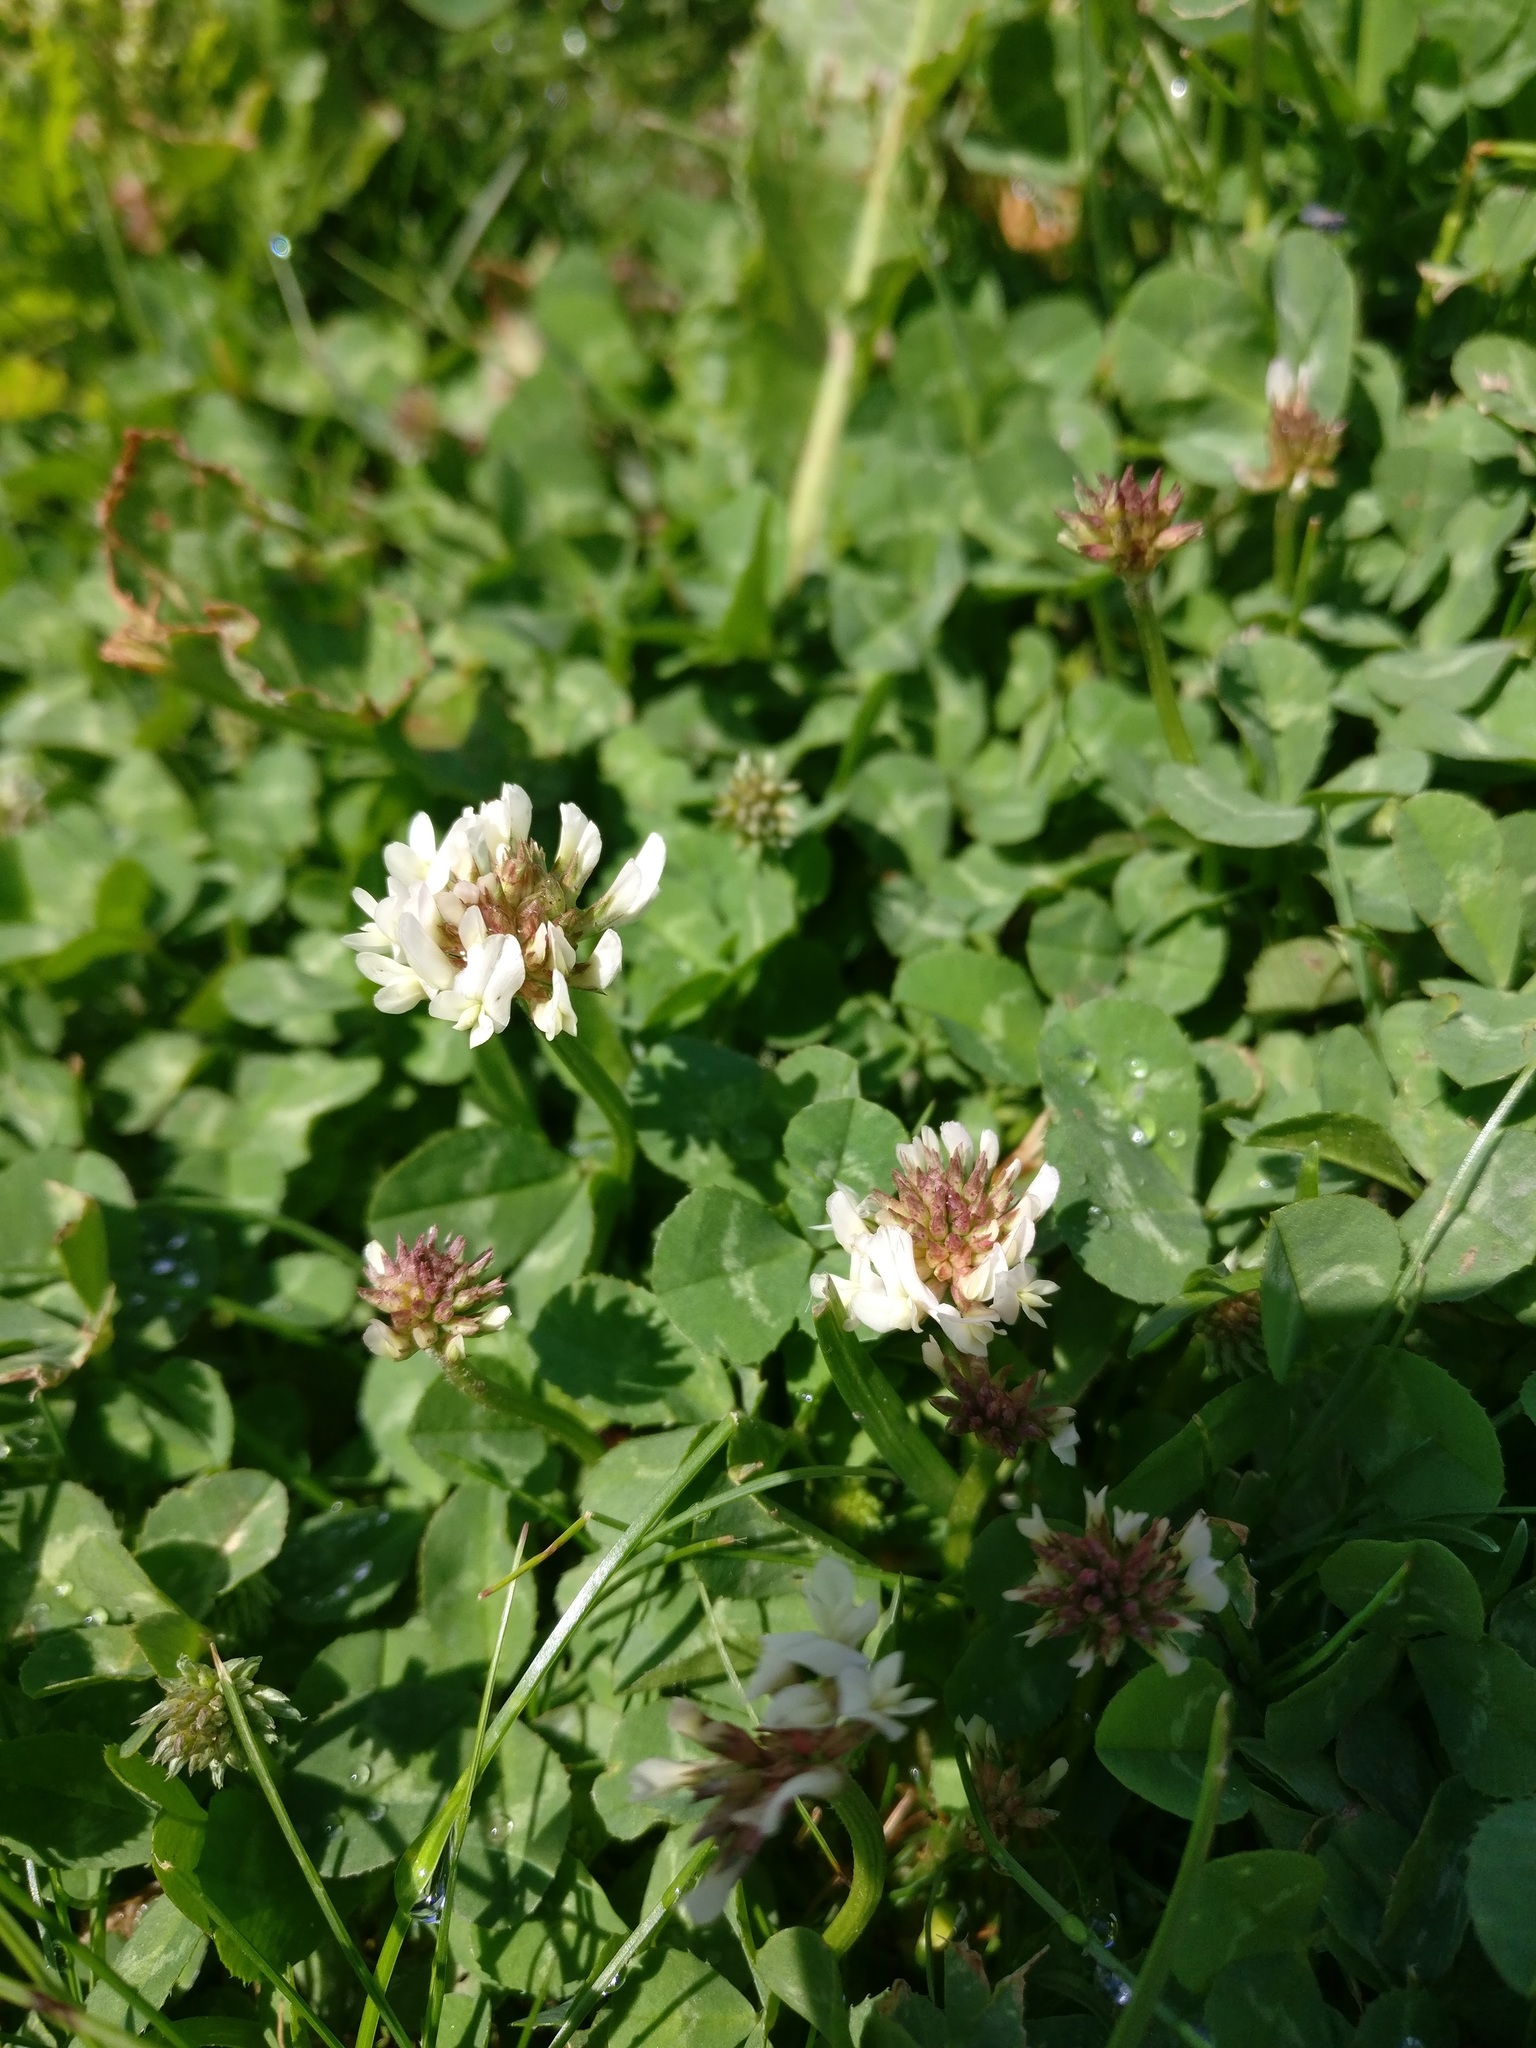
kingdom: Plantae
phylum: Tracheophyta
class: Magnoliopsida
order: Fabales
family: Fabaceae
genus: Trifolium
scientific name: Trifolium repens
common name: White clover
